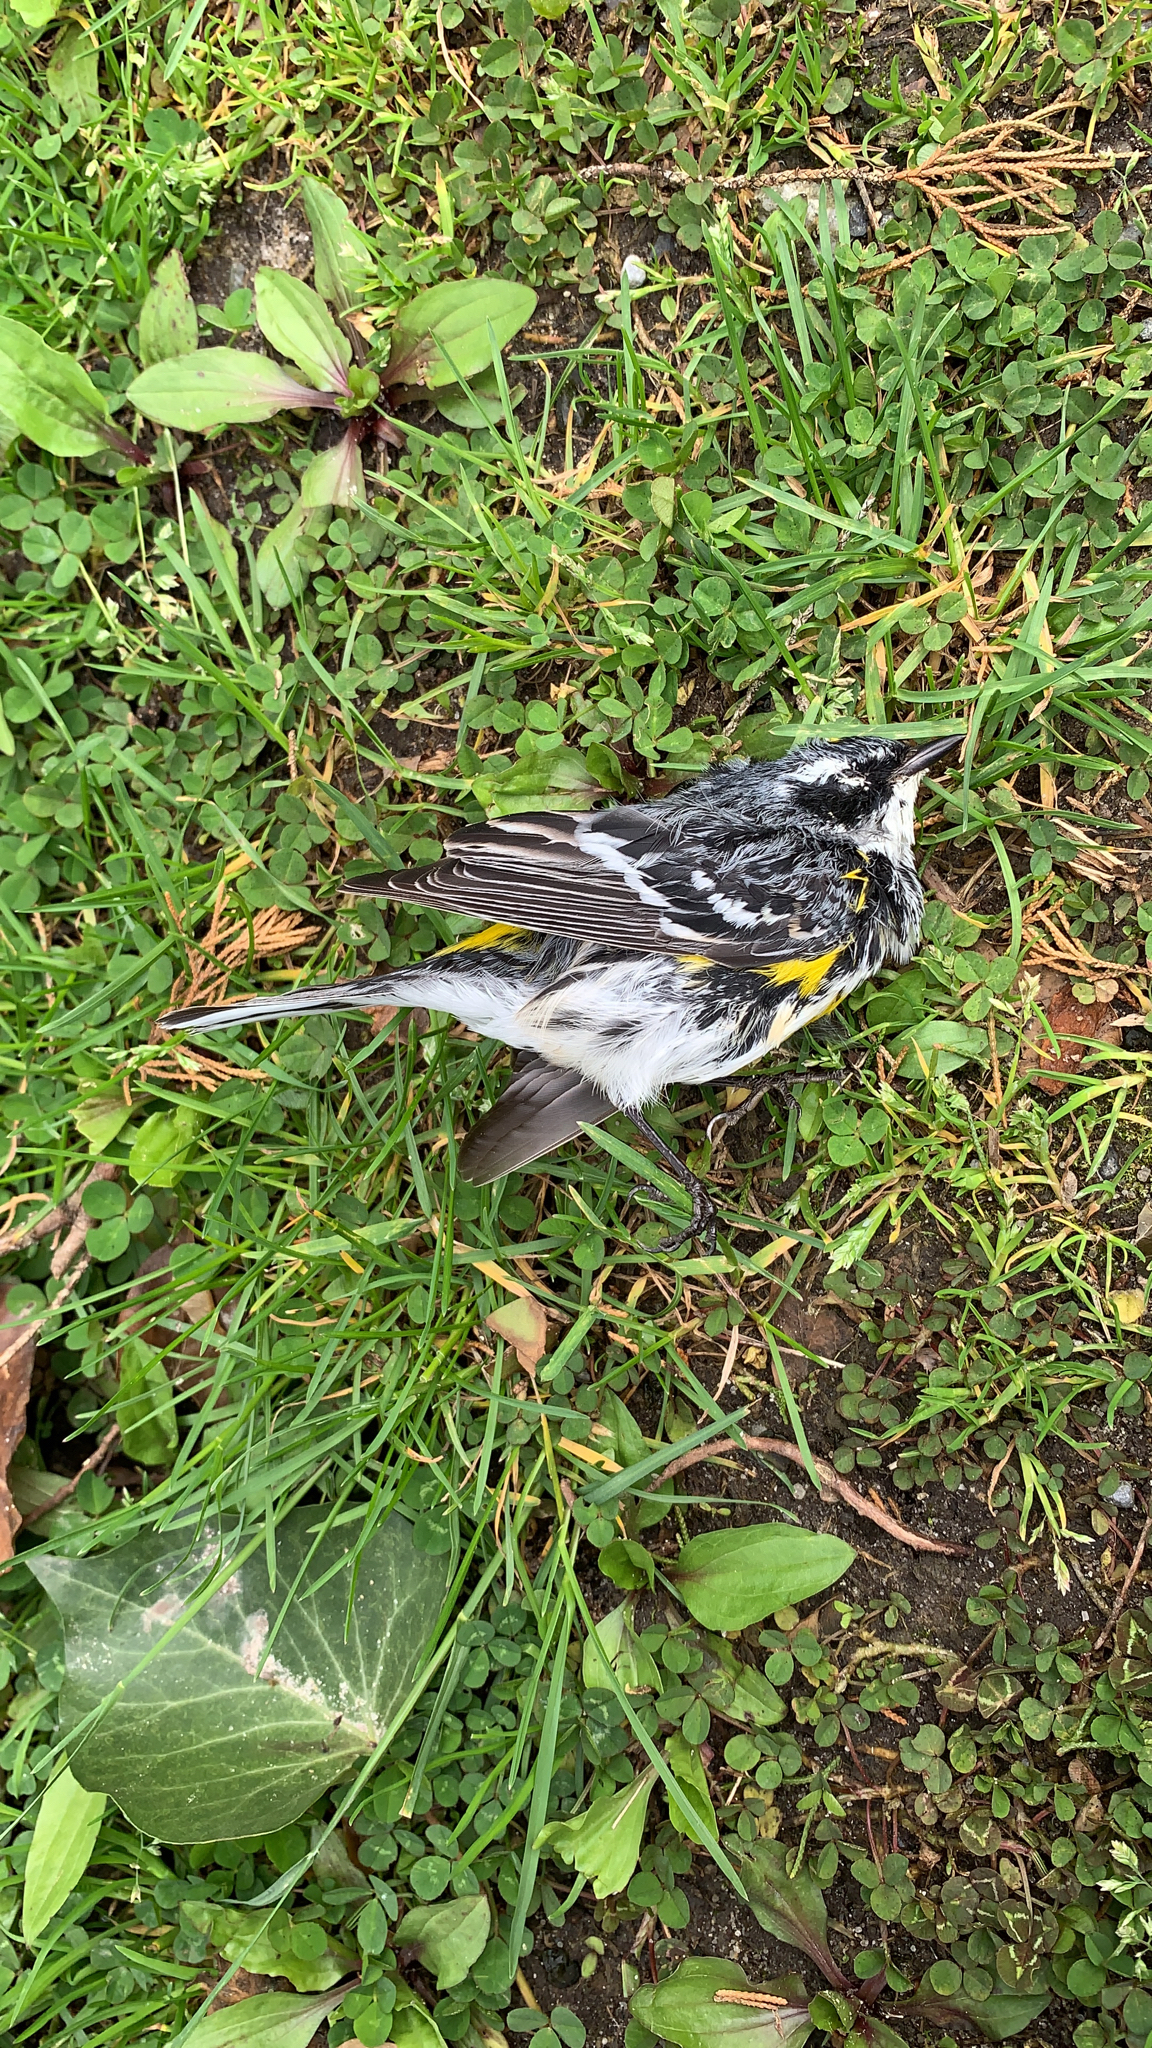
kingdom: Animalia
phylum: Chordata
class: Aves
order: Passeriformes
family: Parulidae
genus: Setophaga
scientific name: Setophaga coronata
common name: Myrtle warbler
